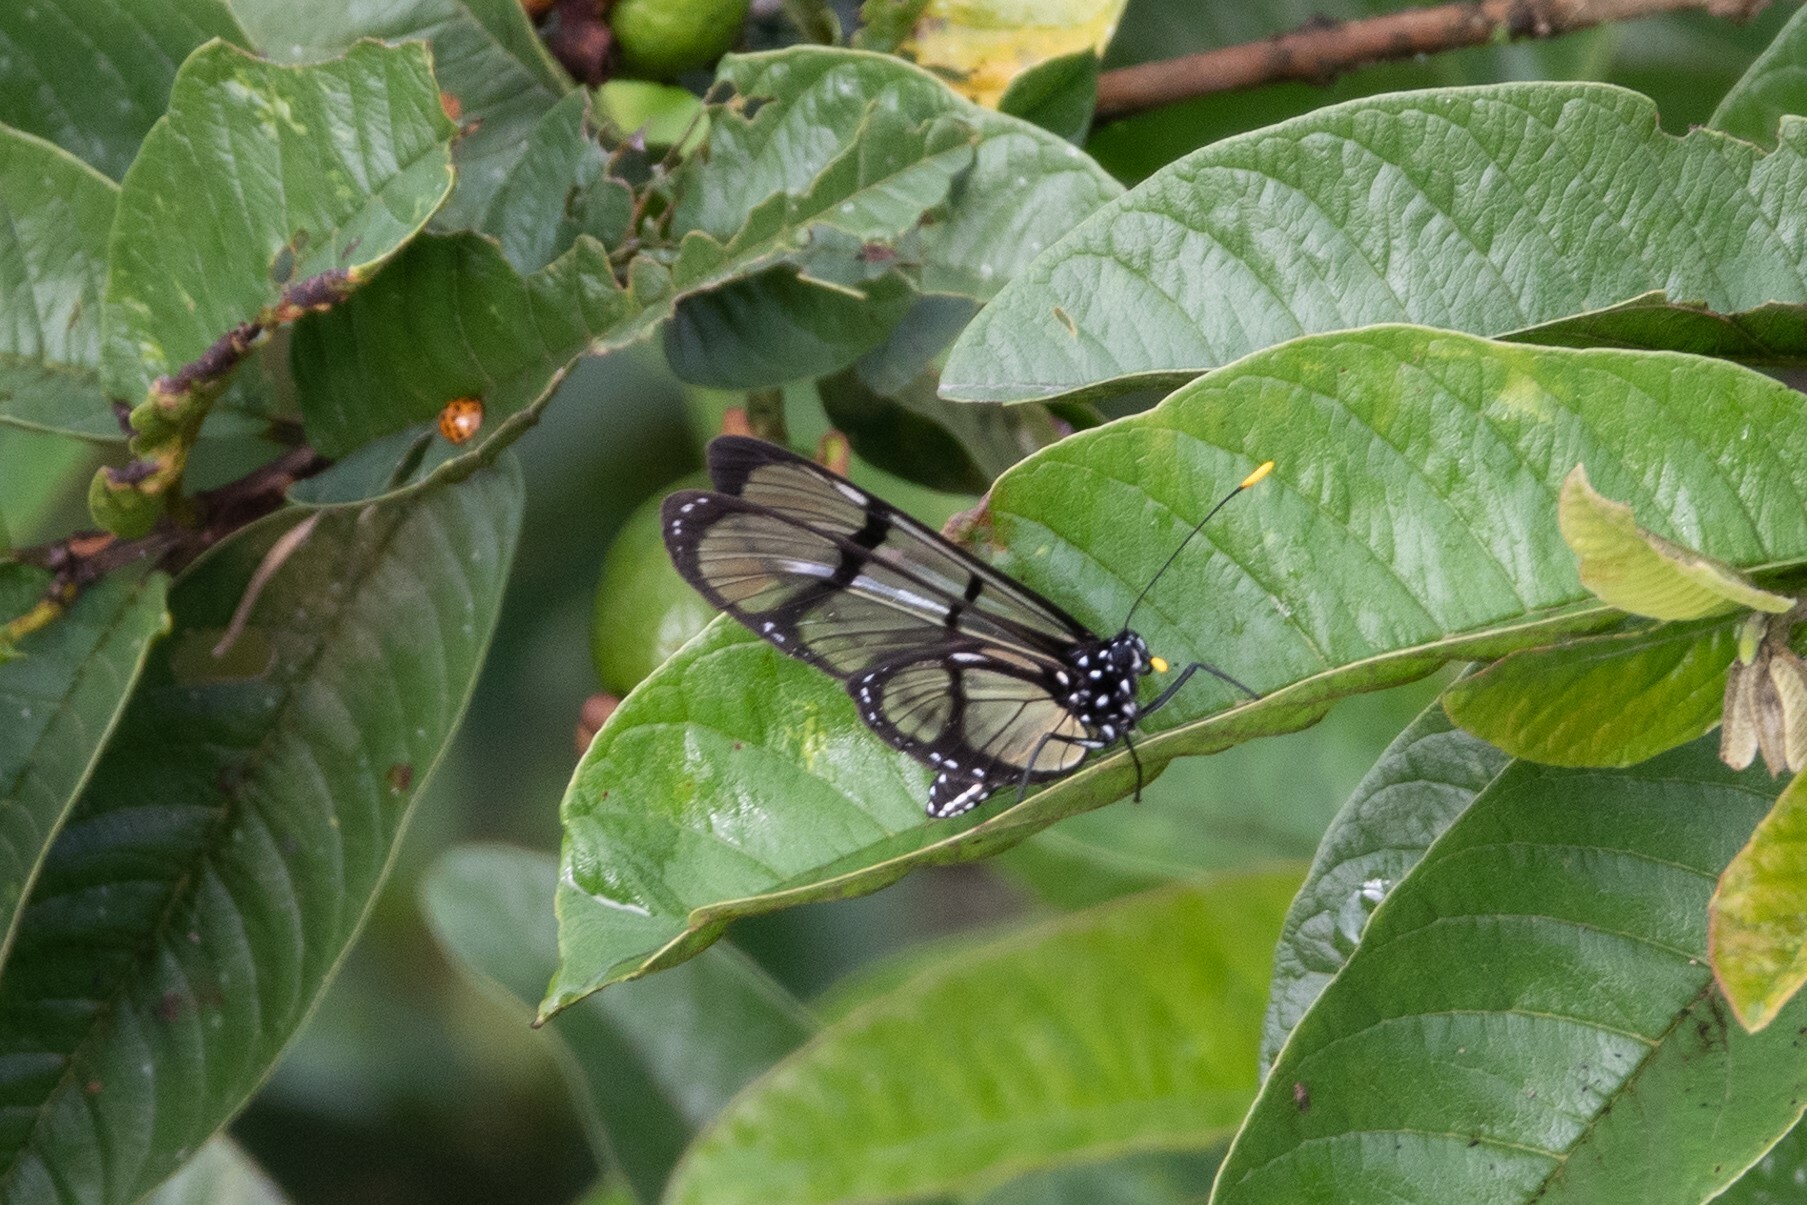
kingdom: Animalia
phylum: Arthropoda
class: Insecta
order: Lepidoptera
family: Nymphalidae
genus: Methona
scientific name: Methona confusa
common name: Confusa tigerwing
